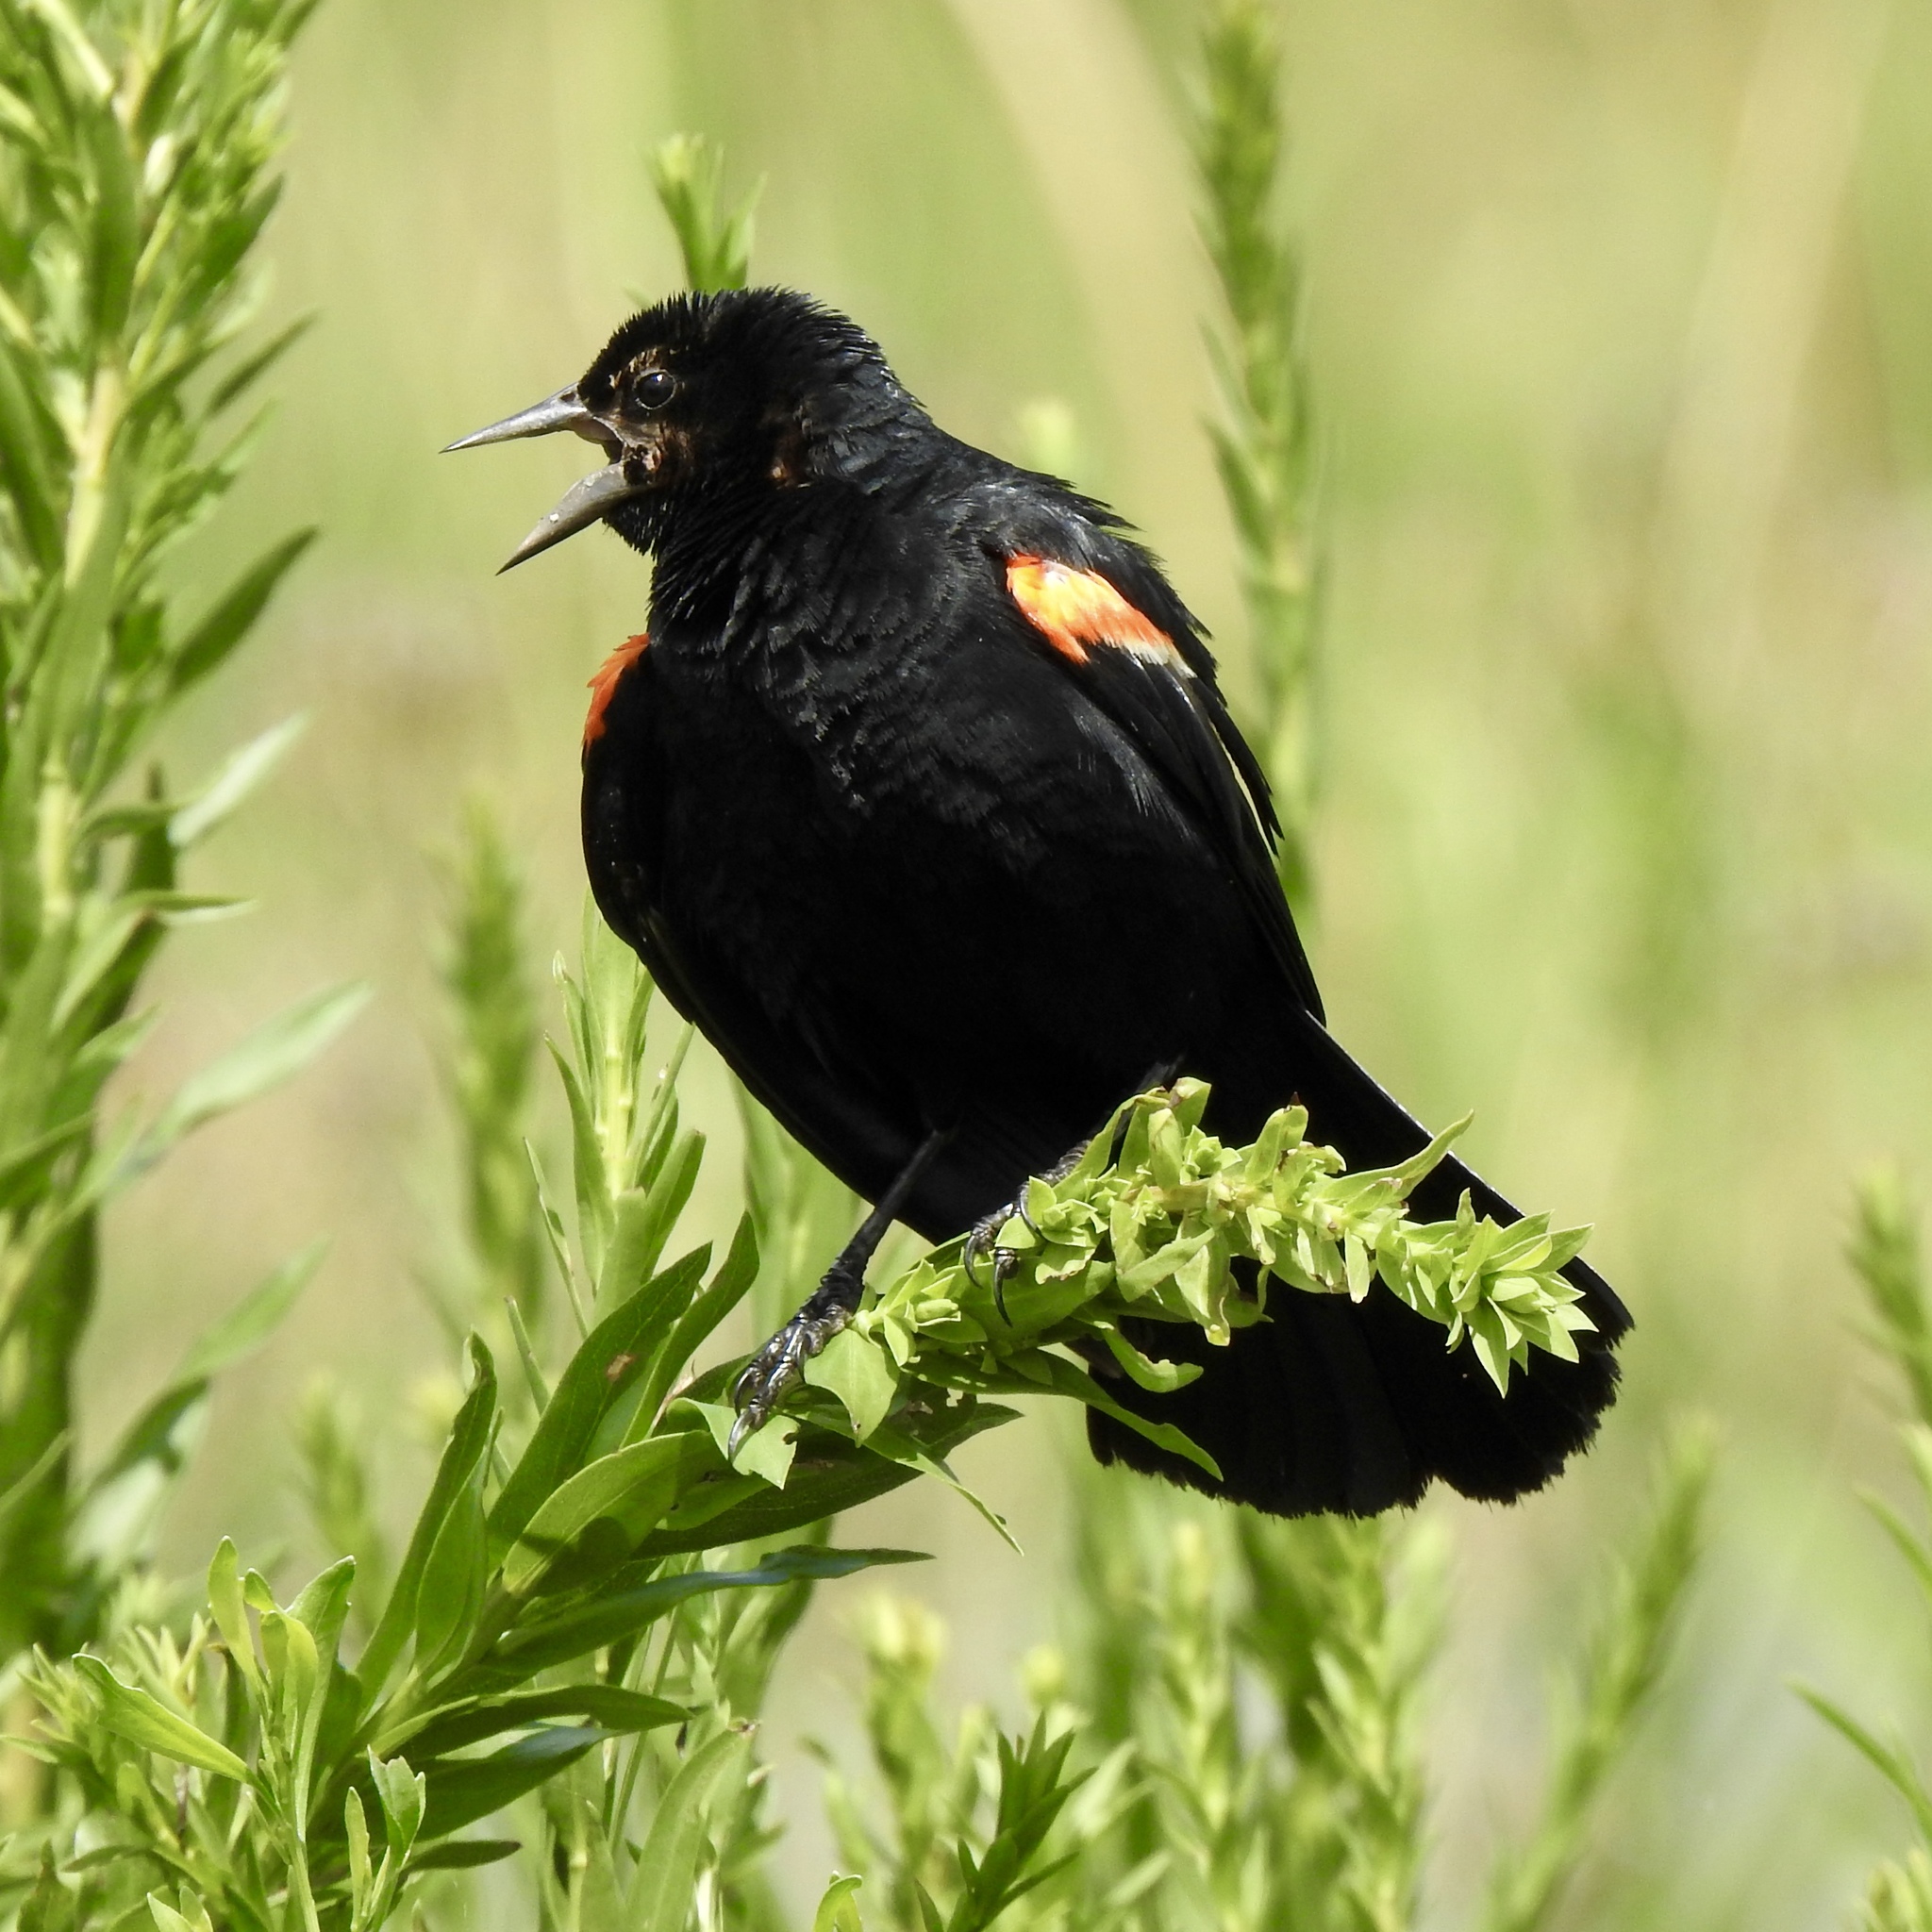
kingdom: Animalia
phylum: Chordata
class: Aves
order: Passeriformes
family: Icteridae
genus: Agelaius
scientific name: Agelaius phoeniceus
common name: Red-winged blackbird
